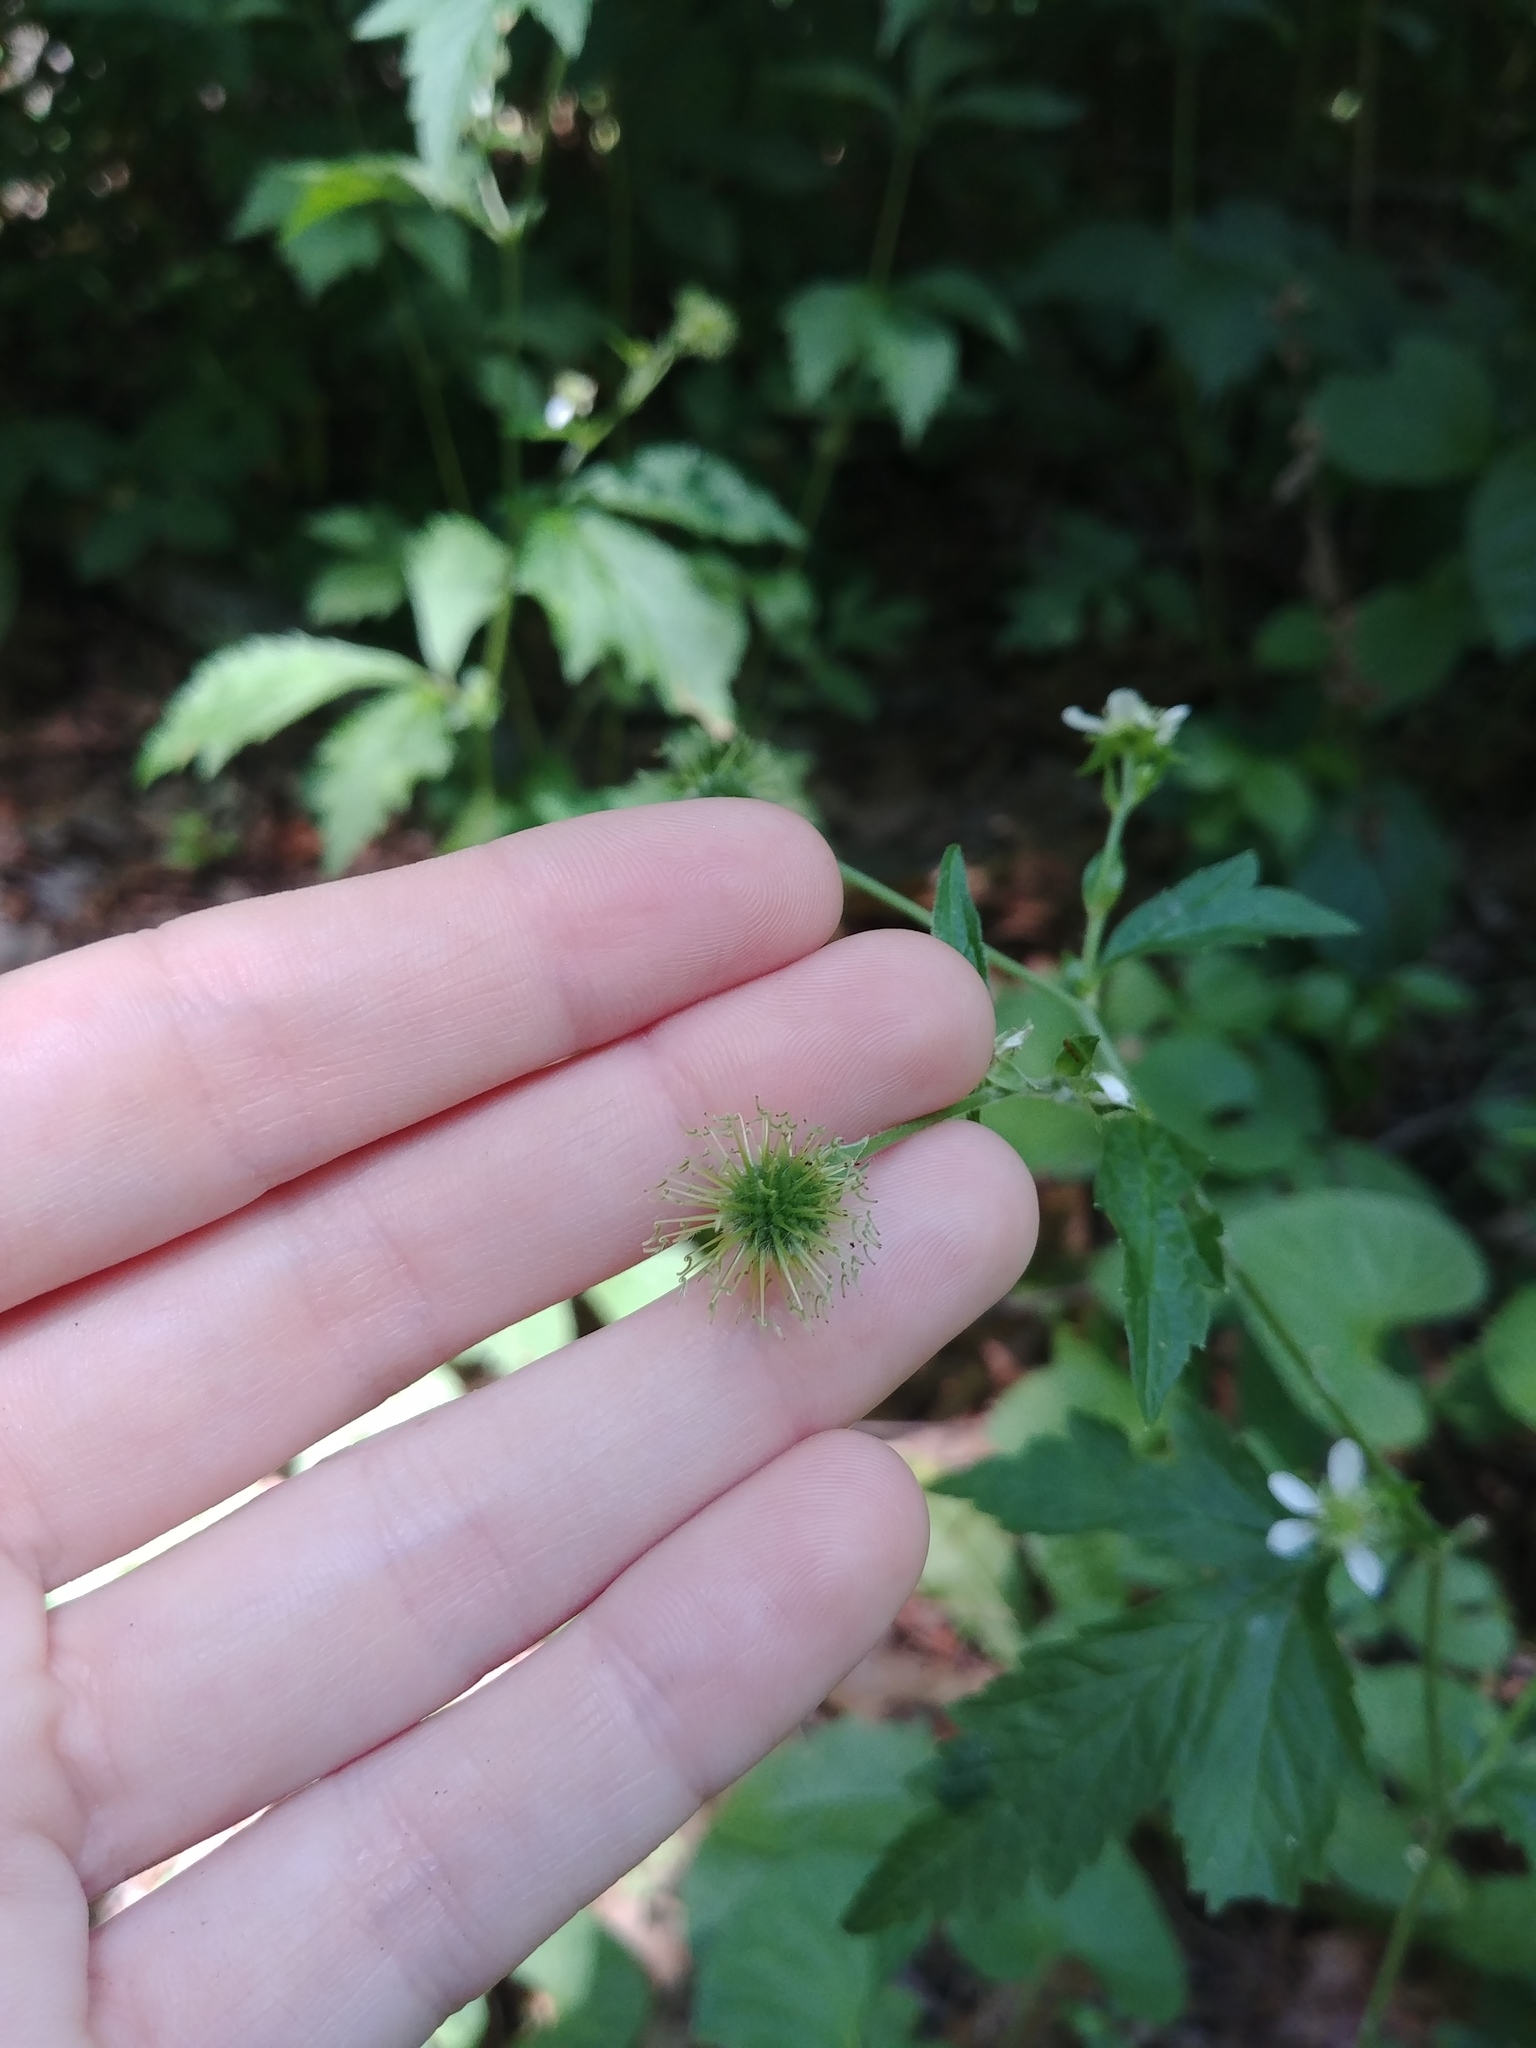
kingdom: Plantae
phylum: Tracheophyta
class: Magnoliopsida
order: Rosales
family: Rosaceae
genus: Geum
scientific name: Geum canadense
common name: White avens
